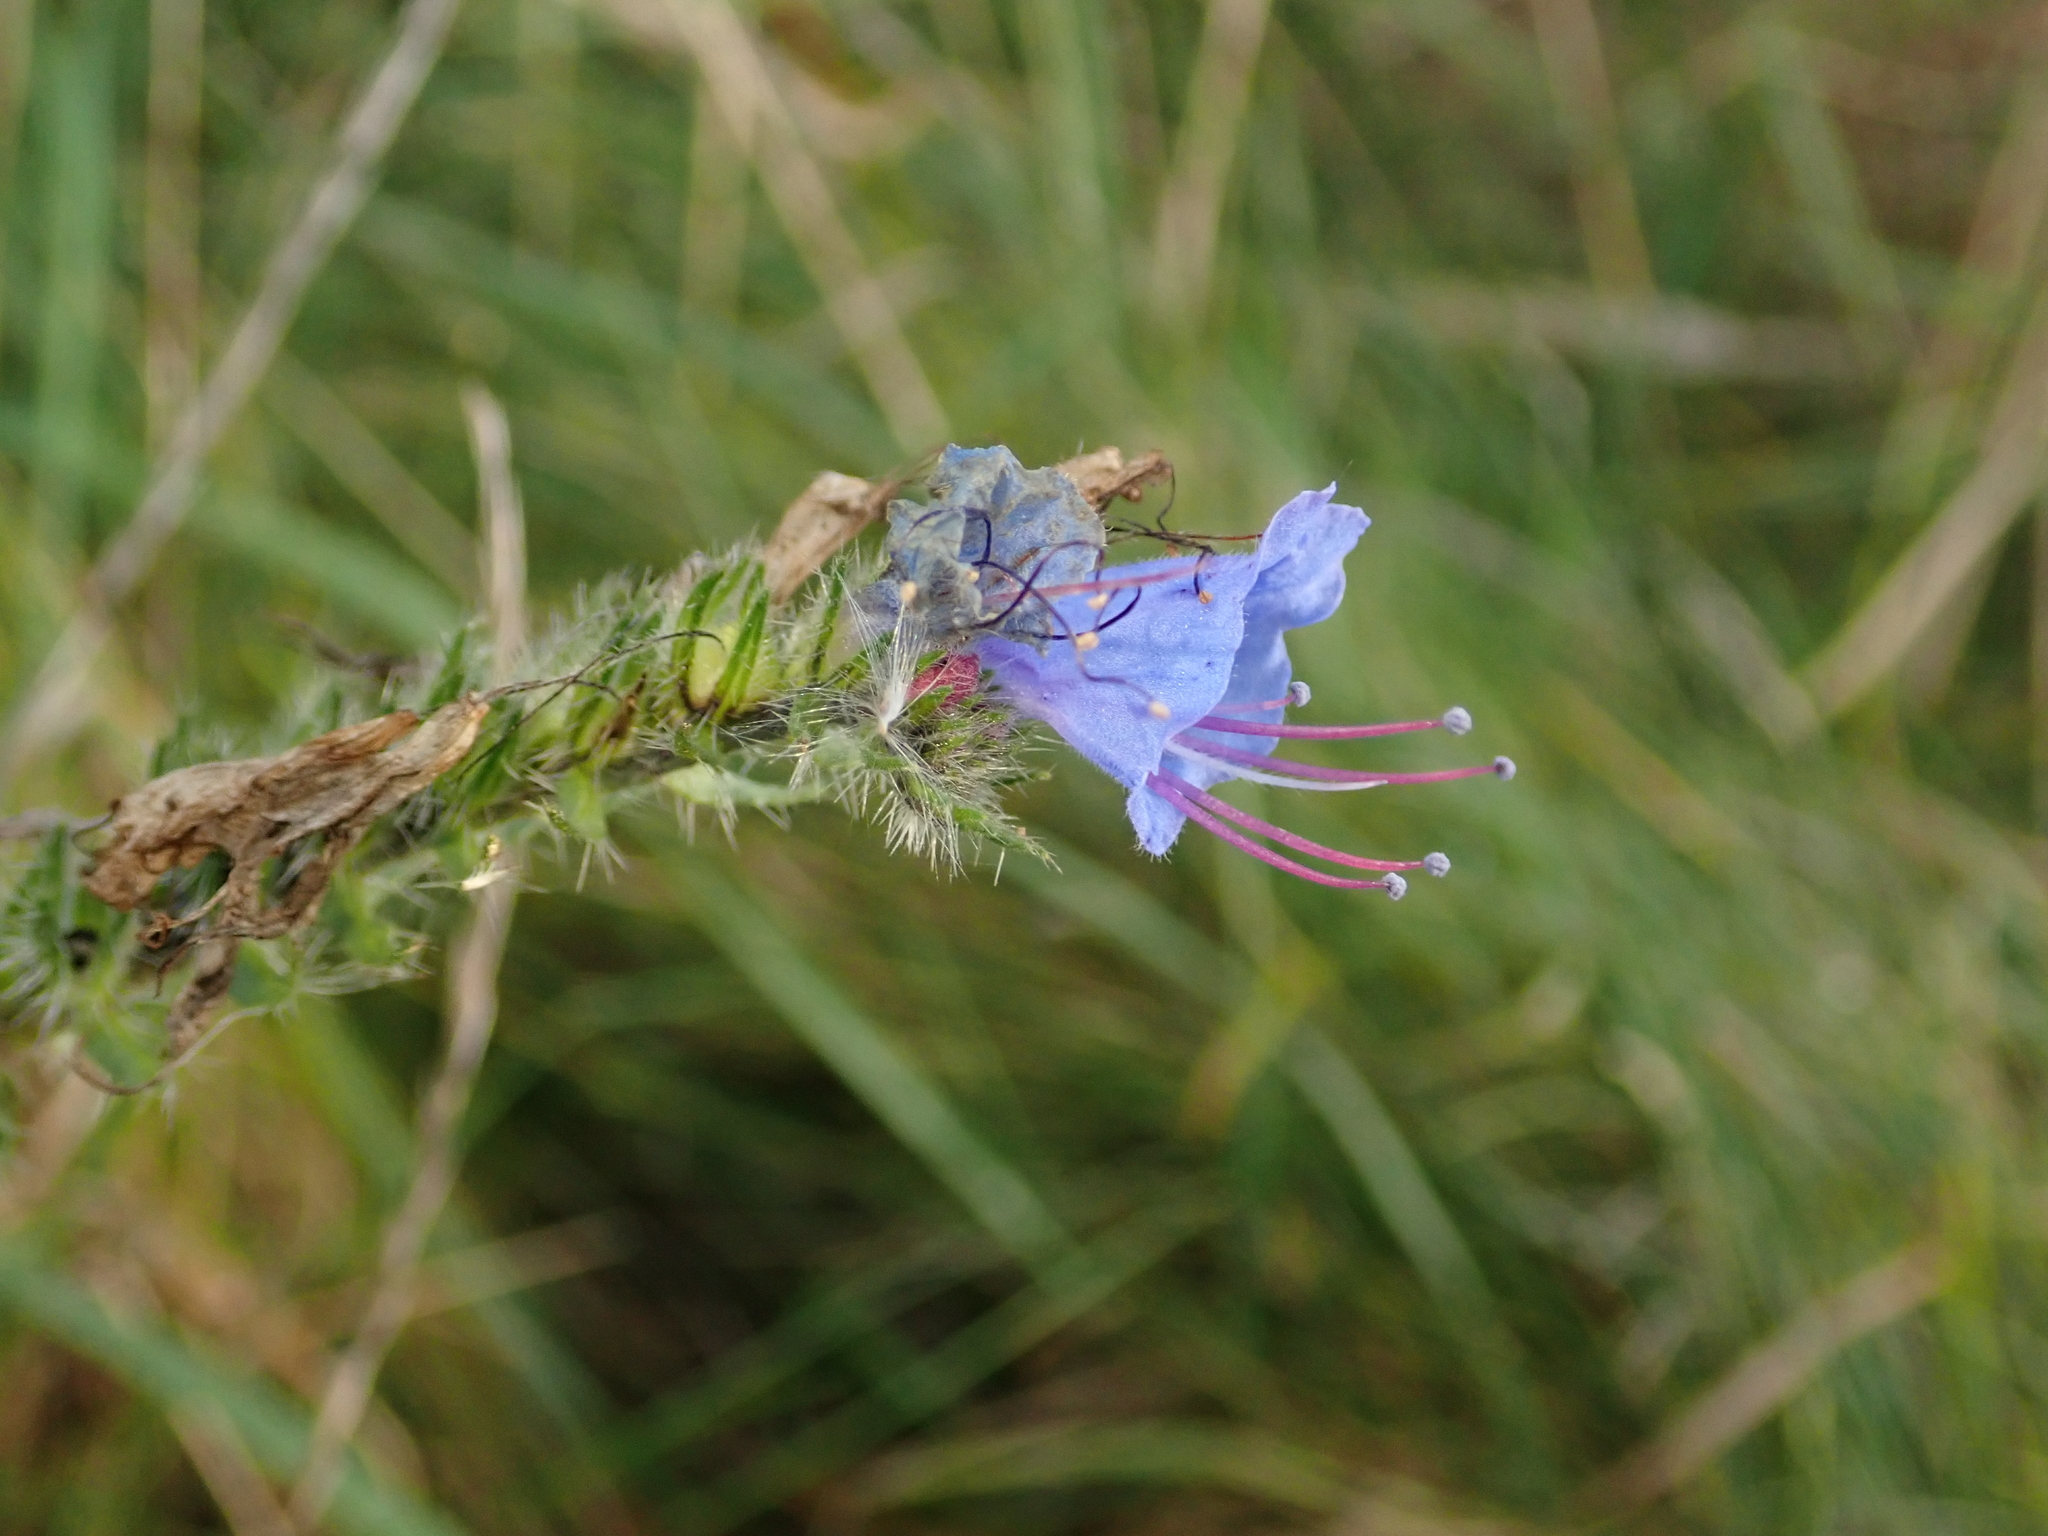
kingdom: Plantae
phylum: Tracheophyta
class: Magnoliopsida
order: Boraginales
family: Boraginaceae
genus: Echium
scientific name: Echium vulgare
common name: Common viper's bugloss
